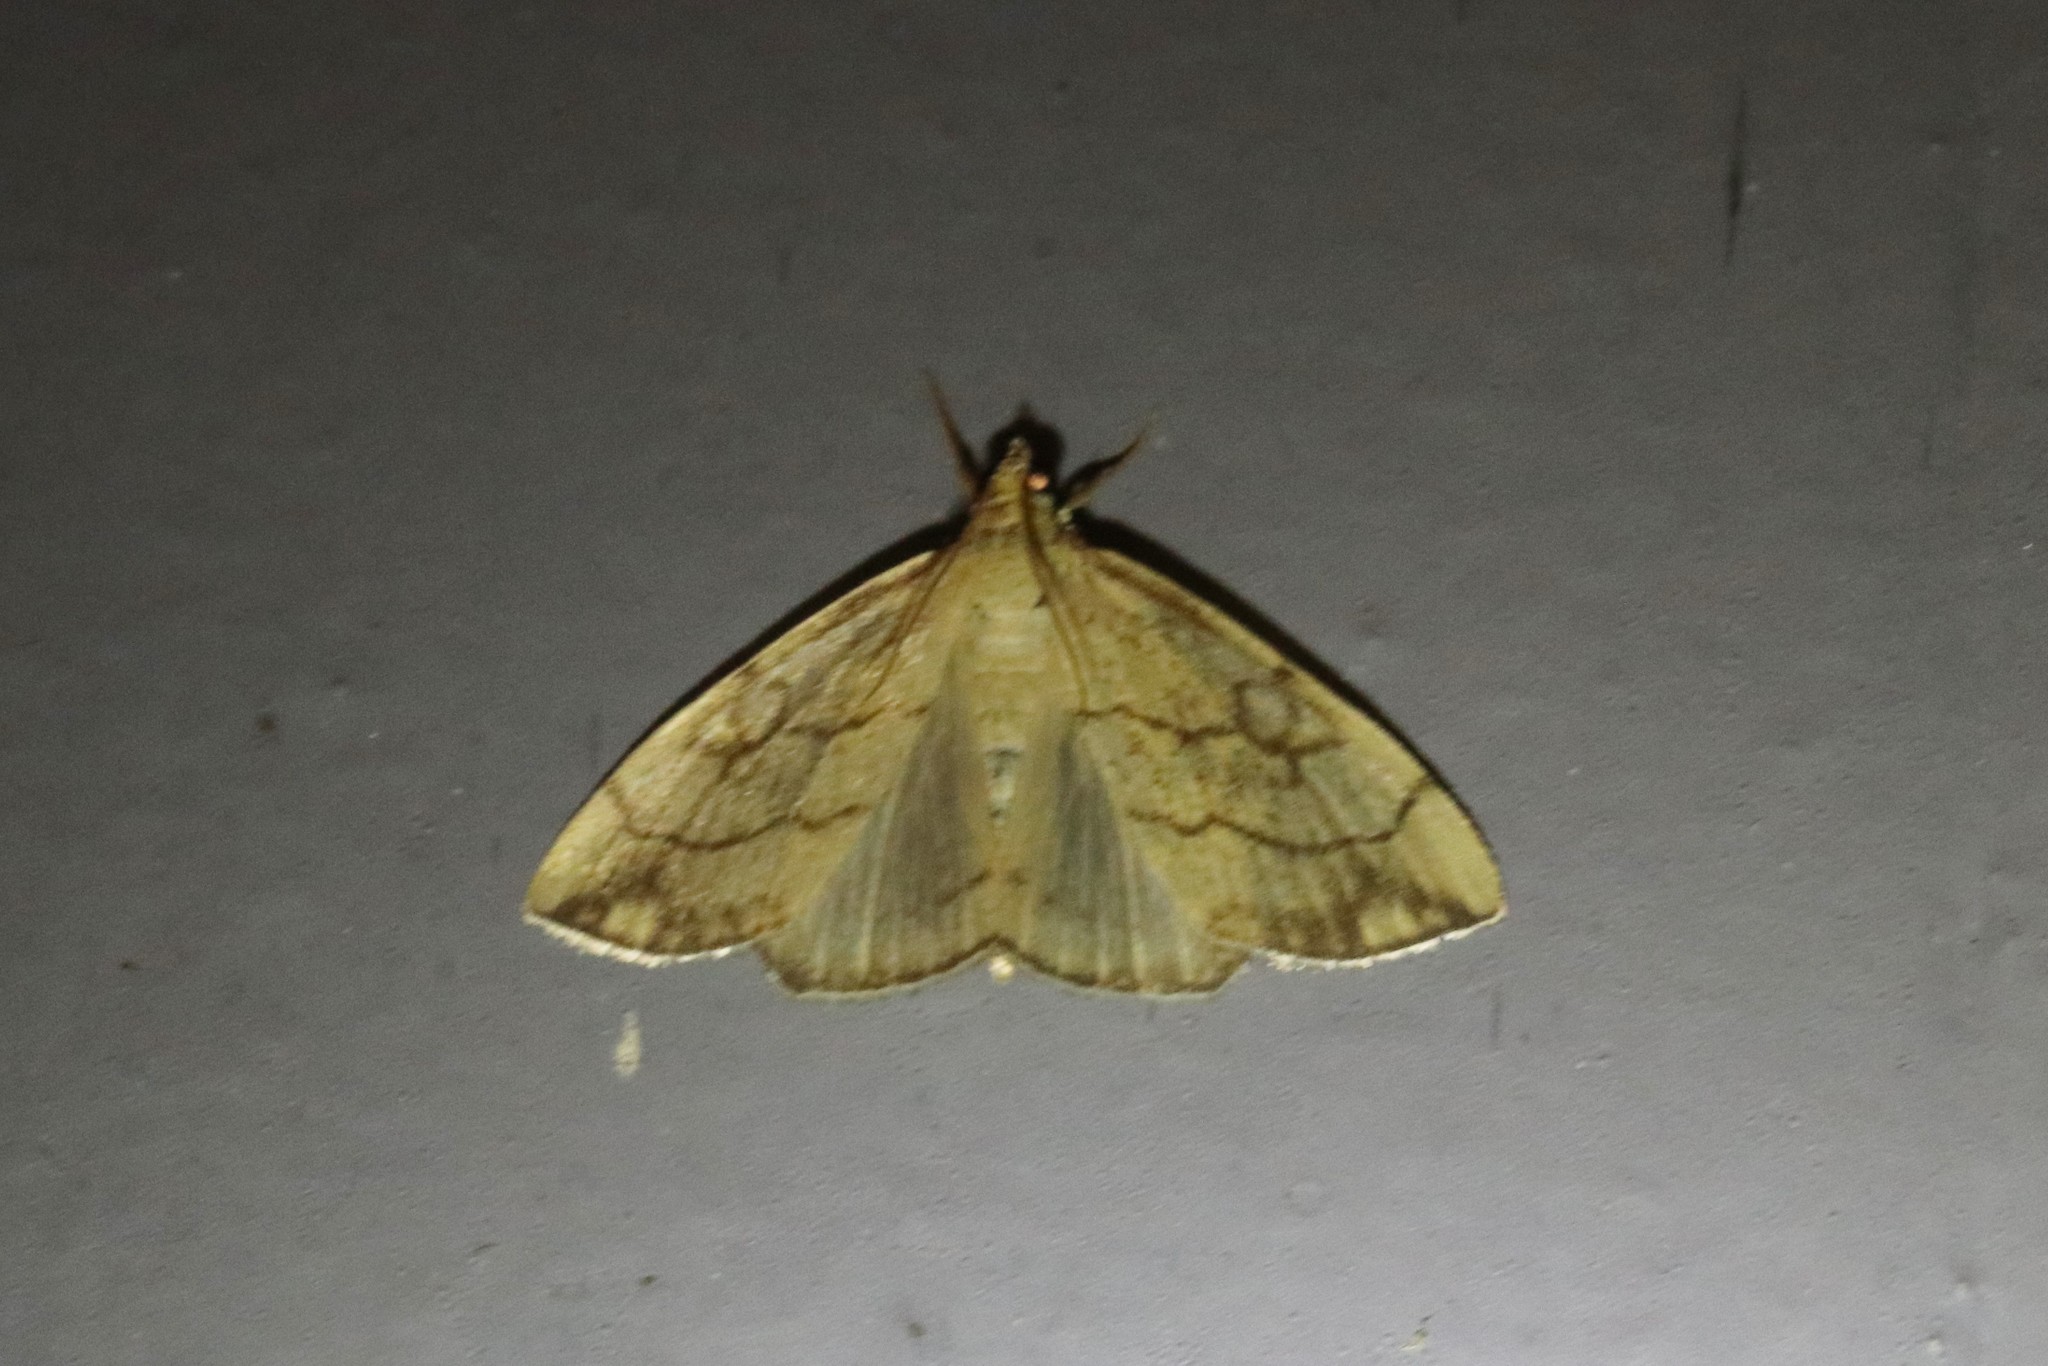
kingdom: Animalia
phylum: Arthropoda
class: Insecta
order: Lepidoptera
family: Crambidae
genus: Evergestis
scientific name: Evergestis pallidata
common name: Chequered pearl
